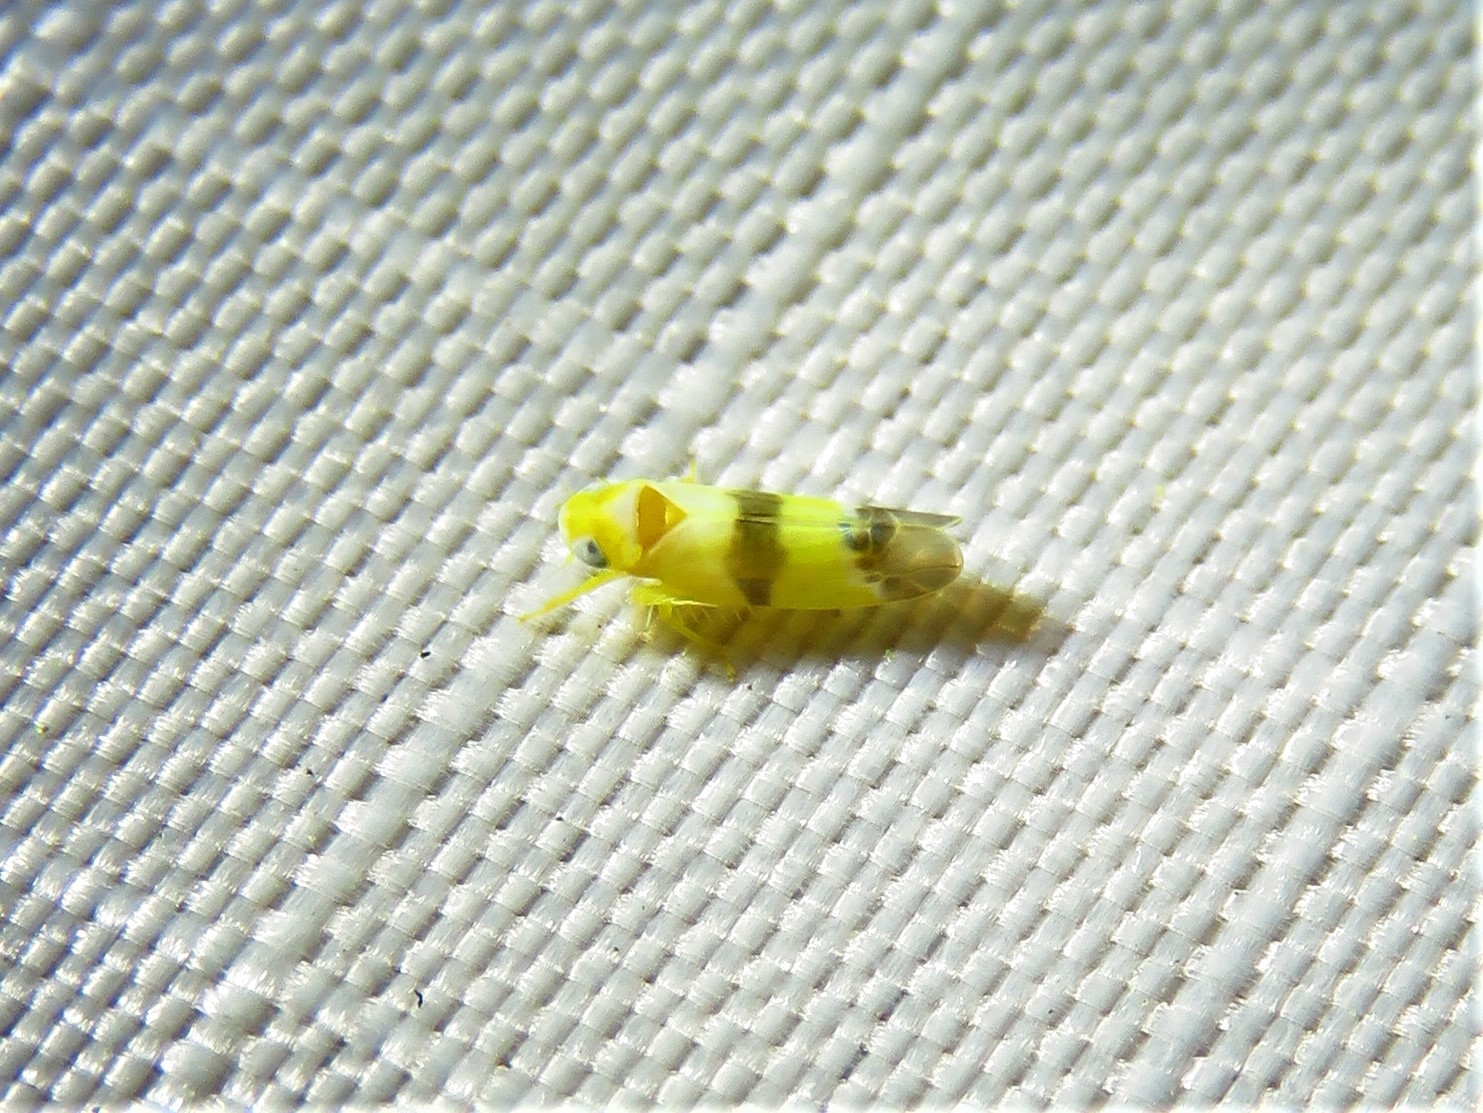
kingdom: Animalia
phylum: Arthropoda
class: Insecta
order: Hemiptera
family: Cicadellidae
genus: Empoa
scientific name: Empoa venusta
